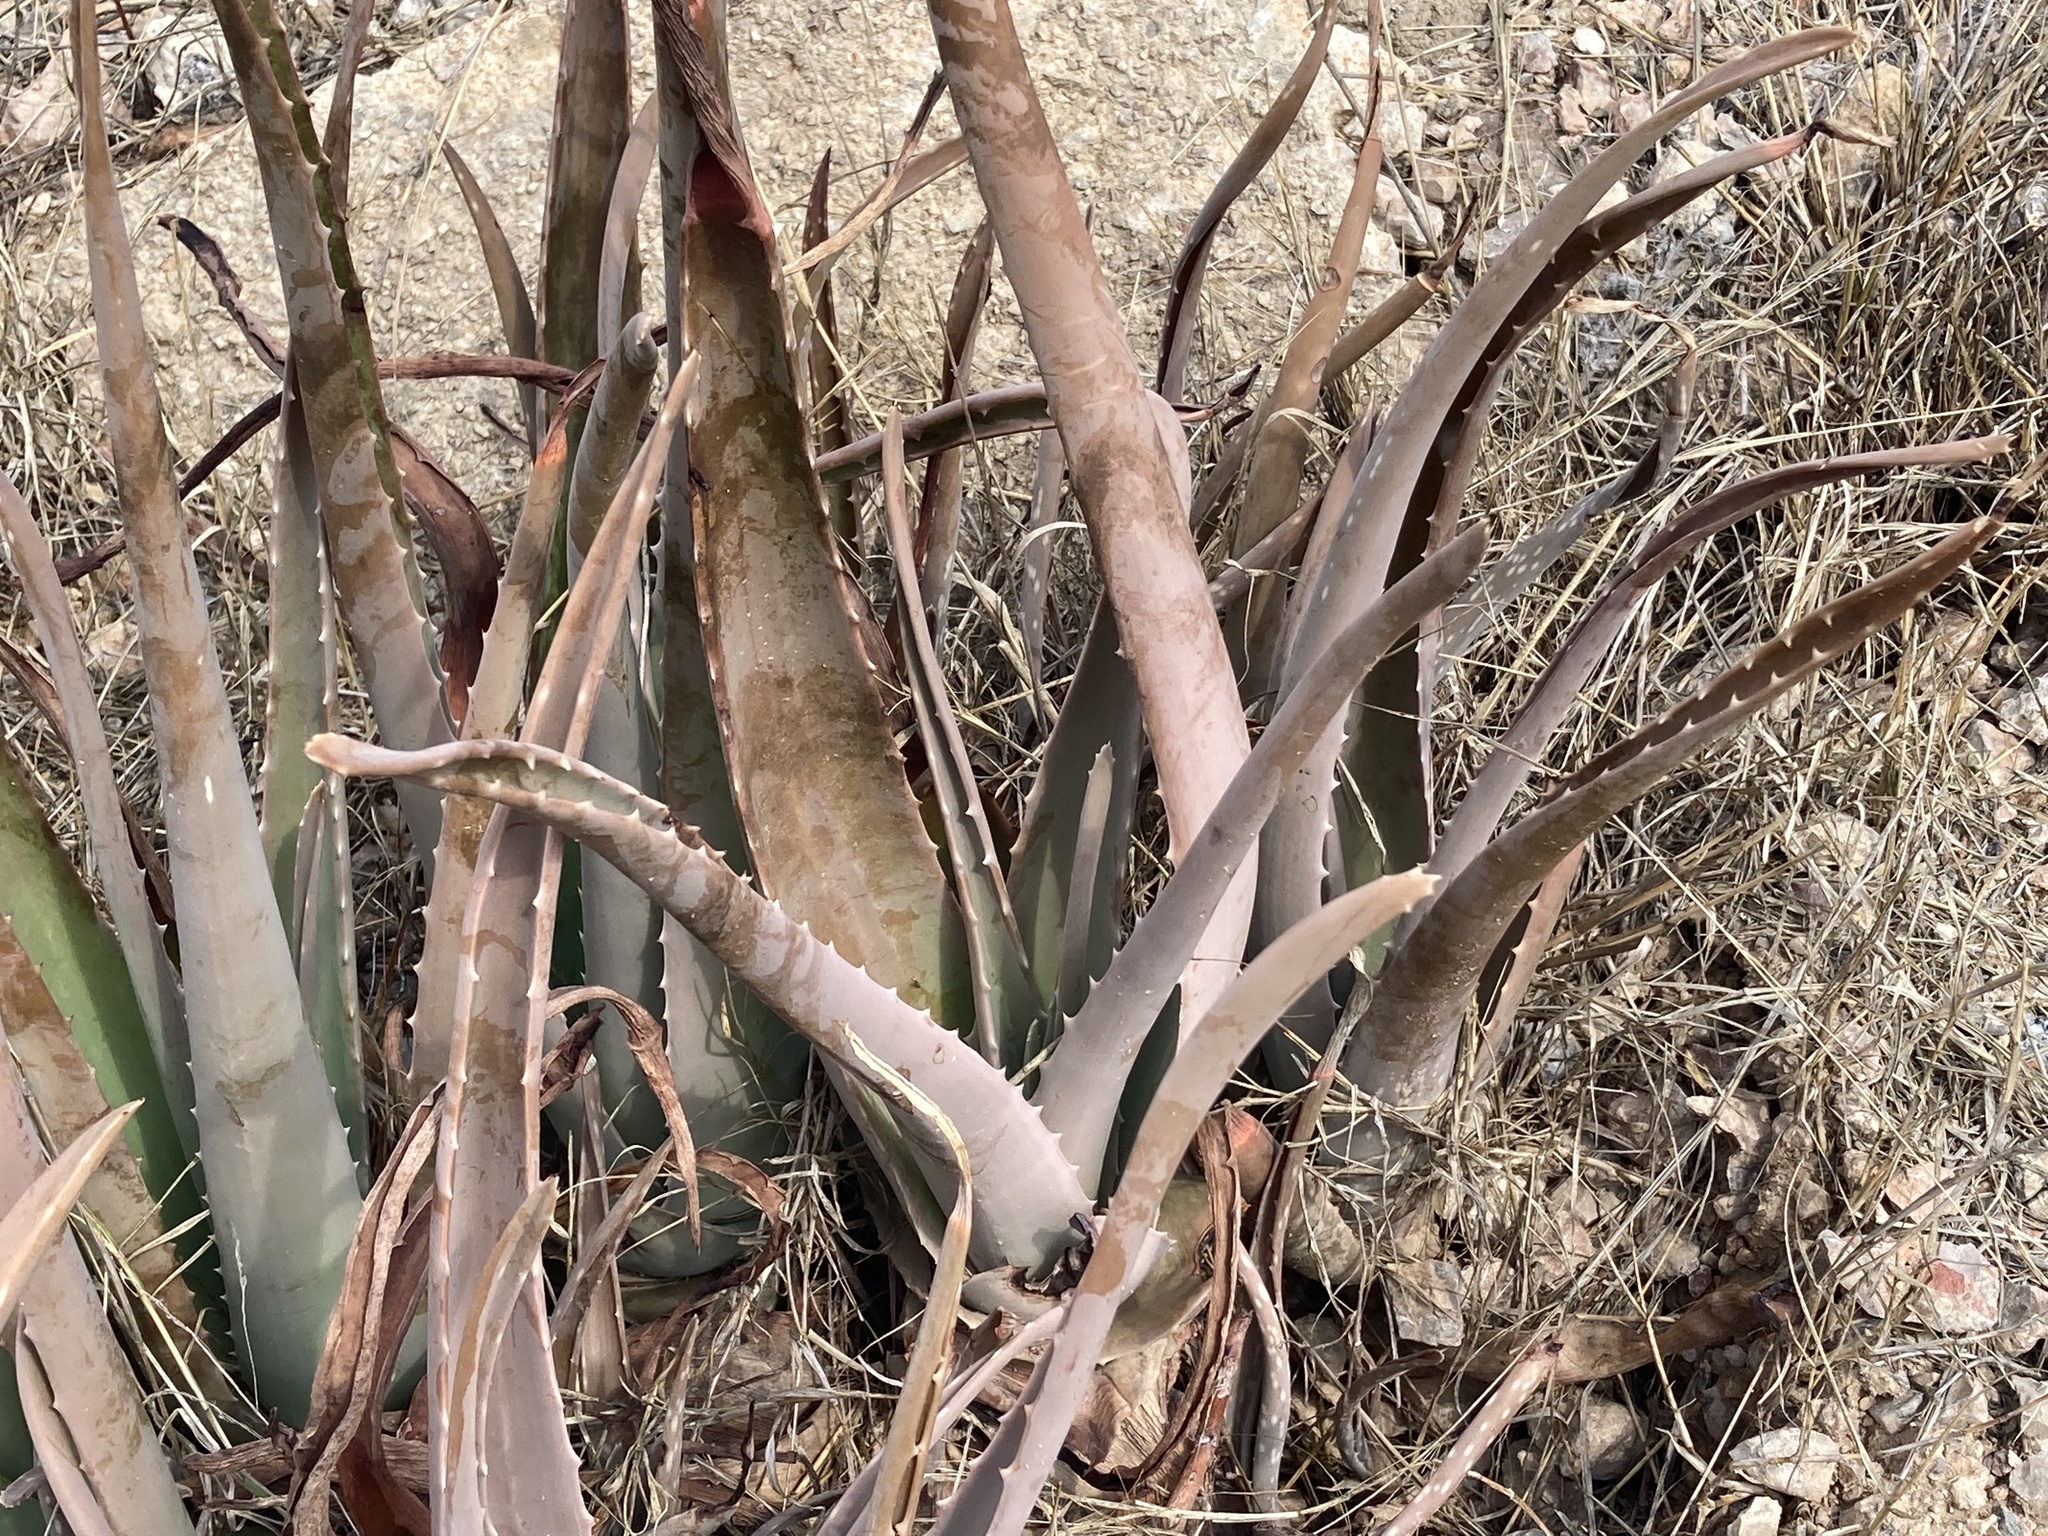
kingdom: Plantae
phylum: Tracheophyta
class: Liliopsida
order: Asparagales
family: Asphodelaceae
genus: Aloe
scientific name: Aloe vera
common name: Barbados aloe
